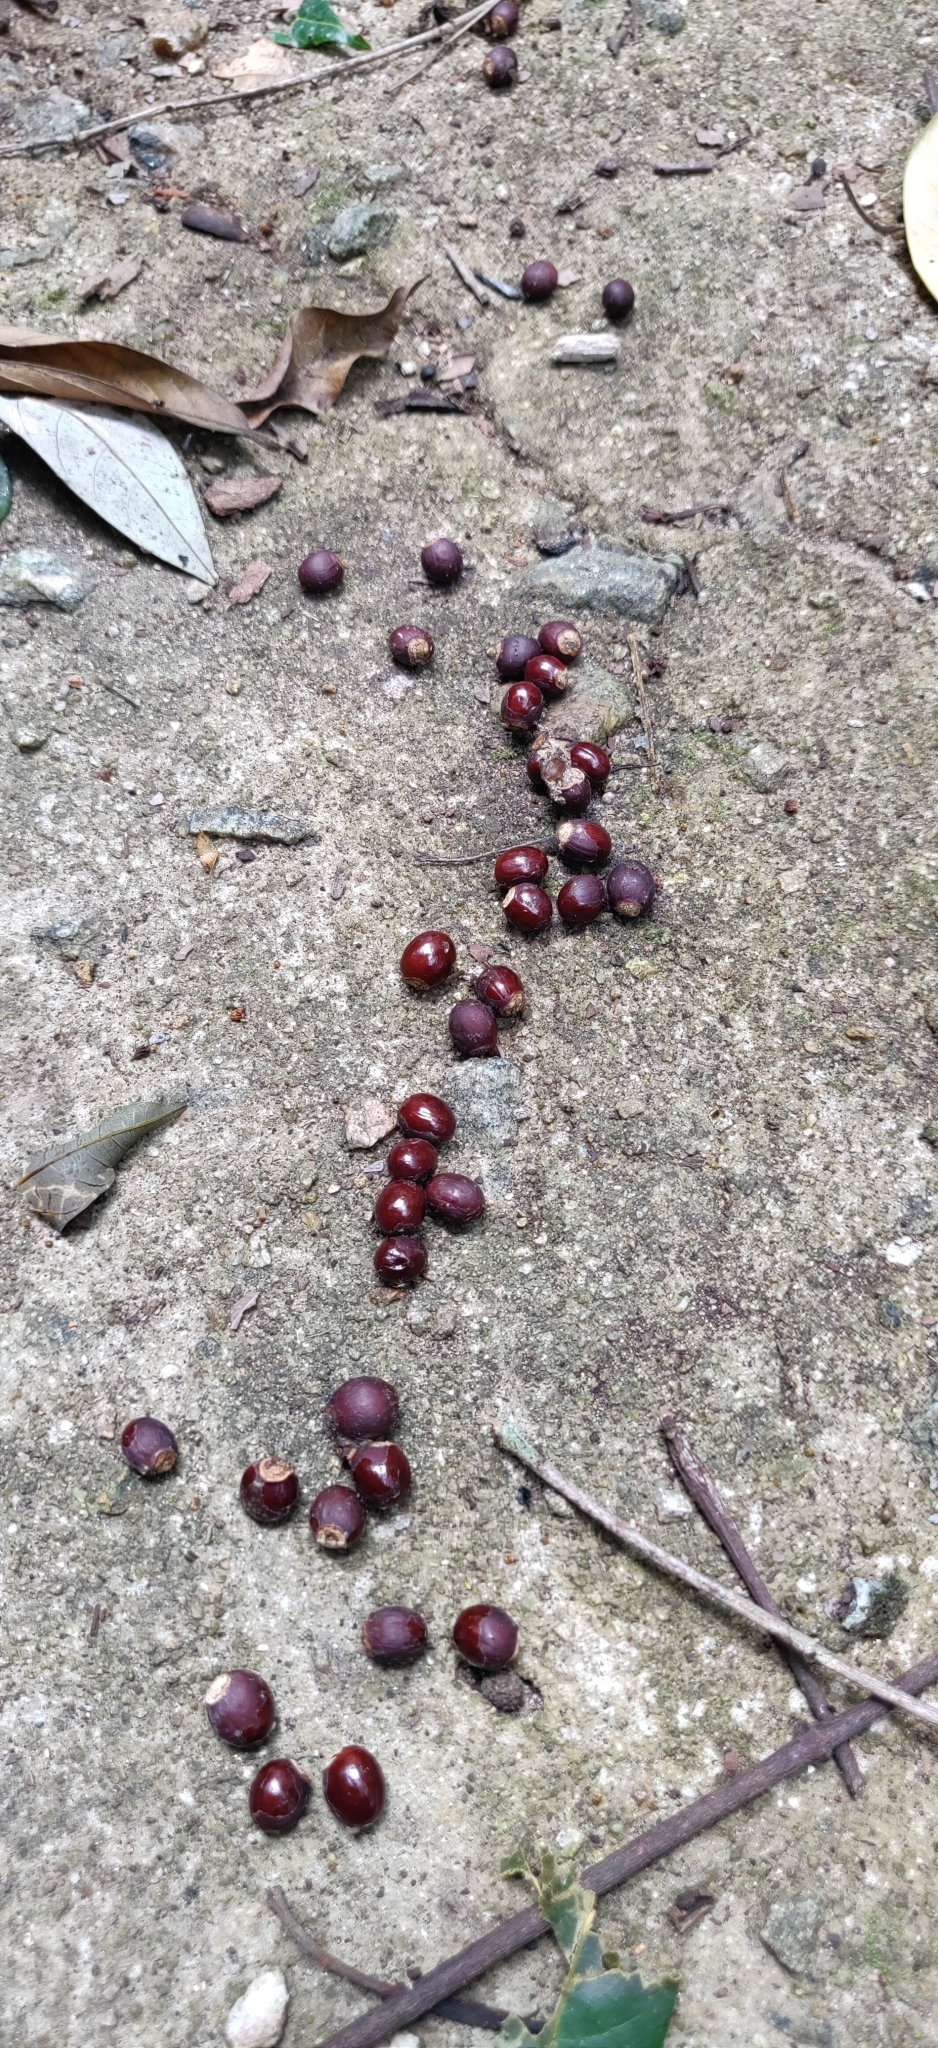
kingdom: Animalia
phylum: Chordata
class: Mammalia
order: Carnivora
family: Viverridae
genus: Paradoxurus
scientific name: Paradoxurus jerdoni
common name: Jerdon's palm civet
